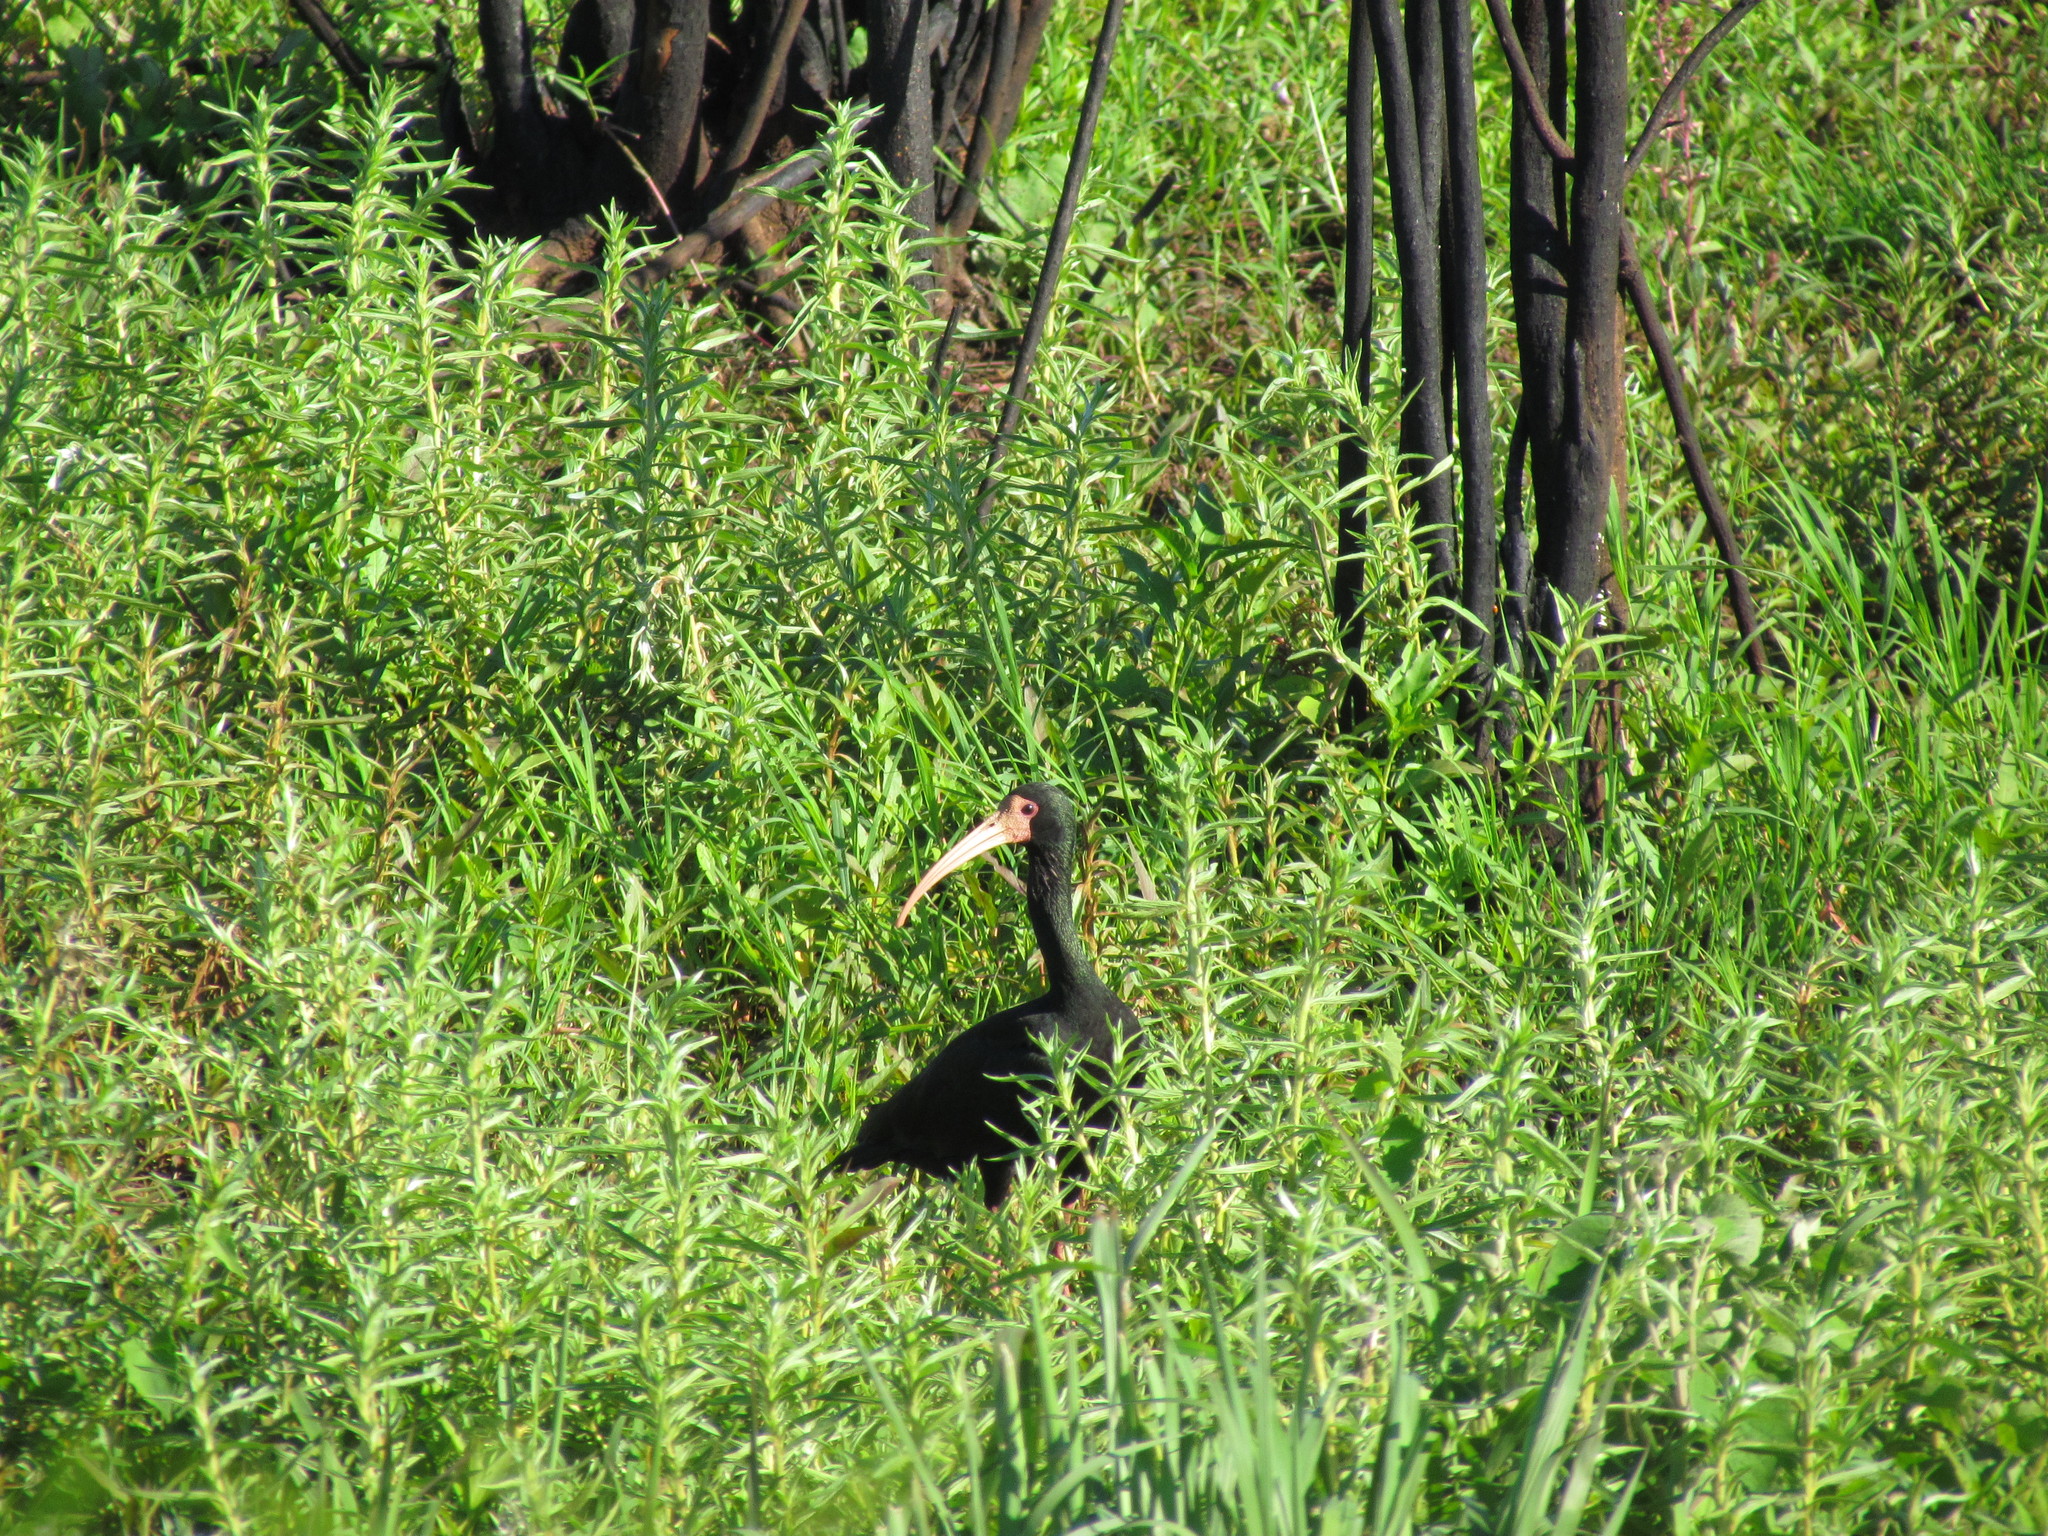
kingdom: Animalia
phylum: Chordata
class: Aves
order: Pelecaniformes
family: Threskiornithidae
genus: Phimosus
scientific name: Phimosus infuscatus
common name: Bare-faced ibis
